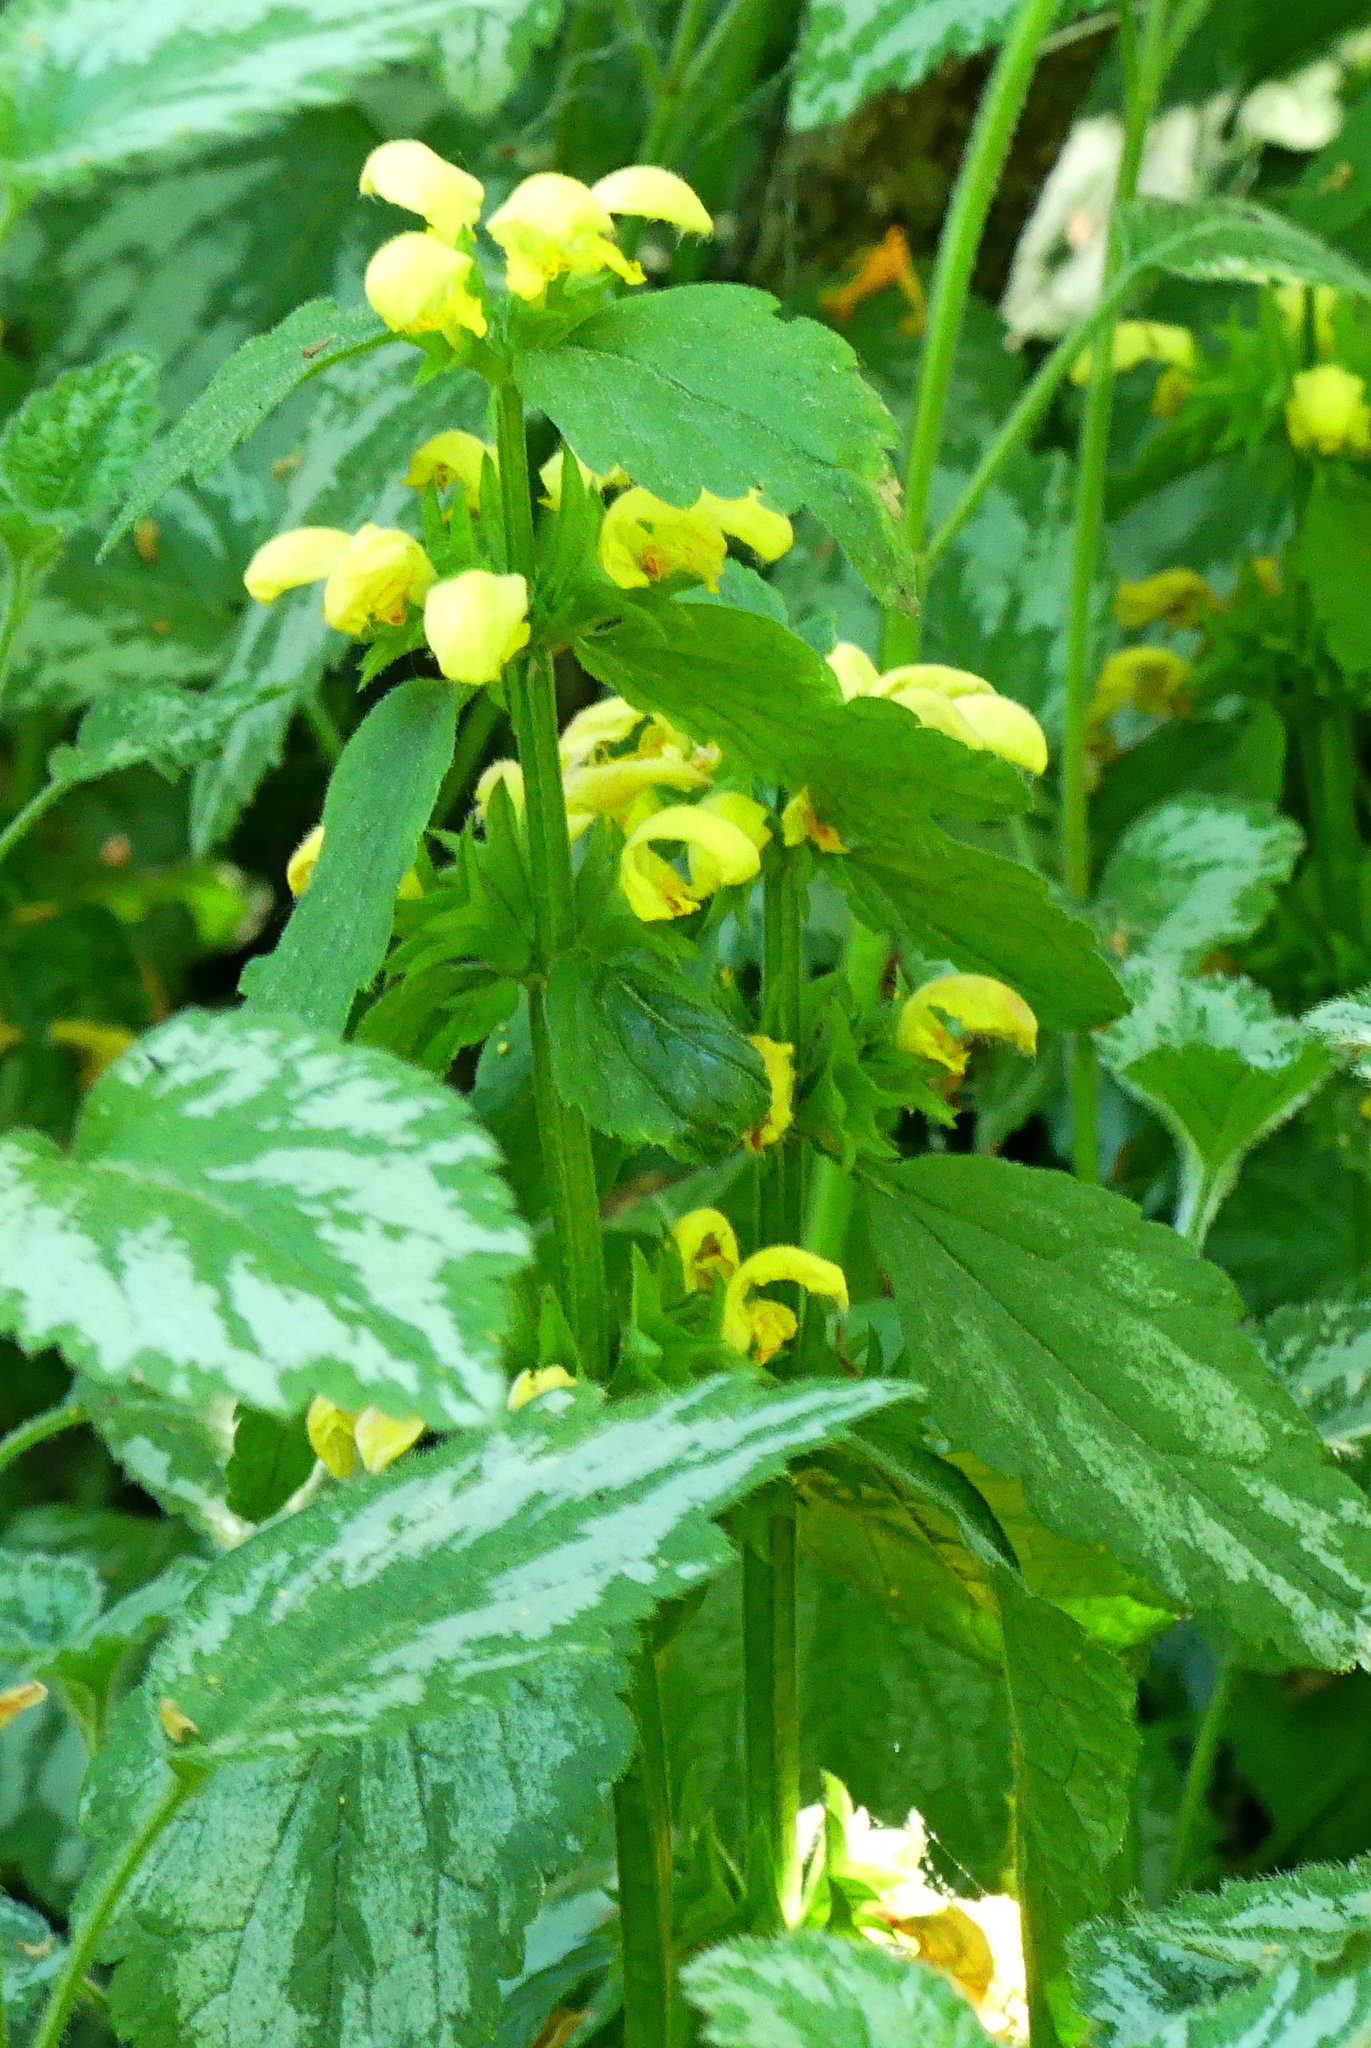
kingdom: Plantae
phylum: Tracheophyta
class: Magnoliopsida
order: Lamiales
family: Lamiaceae
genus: Lamium
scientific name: Lamium galeobdolon
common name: Yellow archangel
